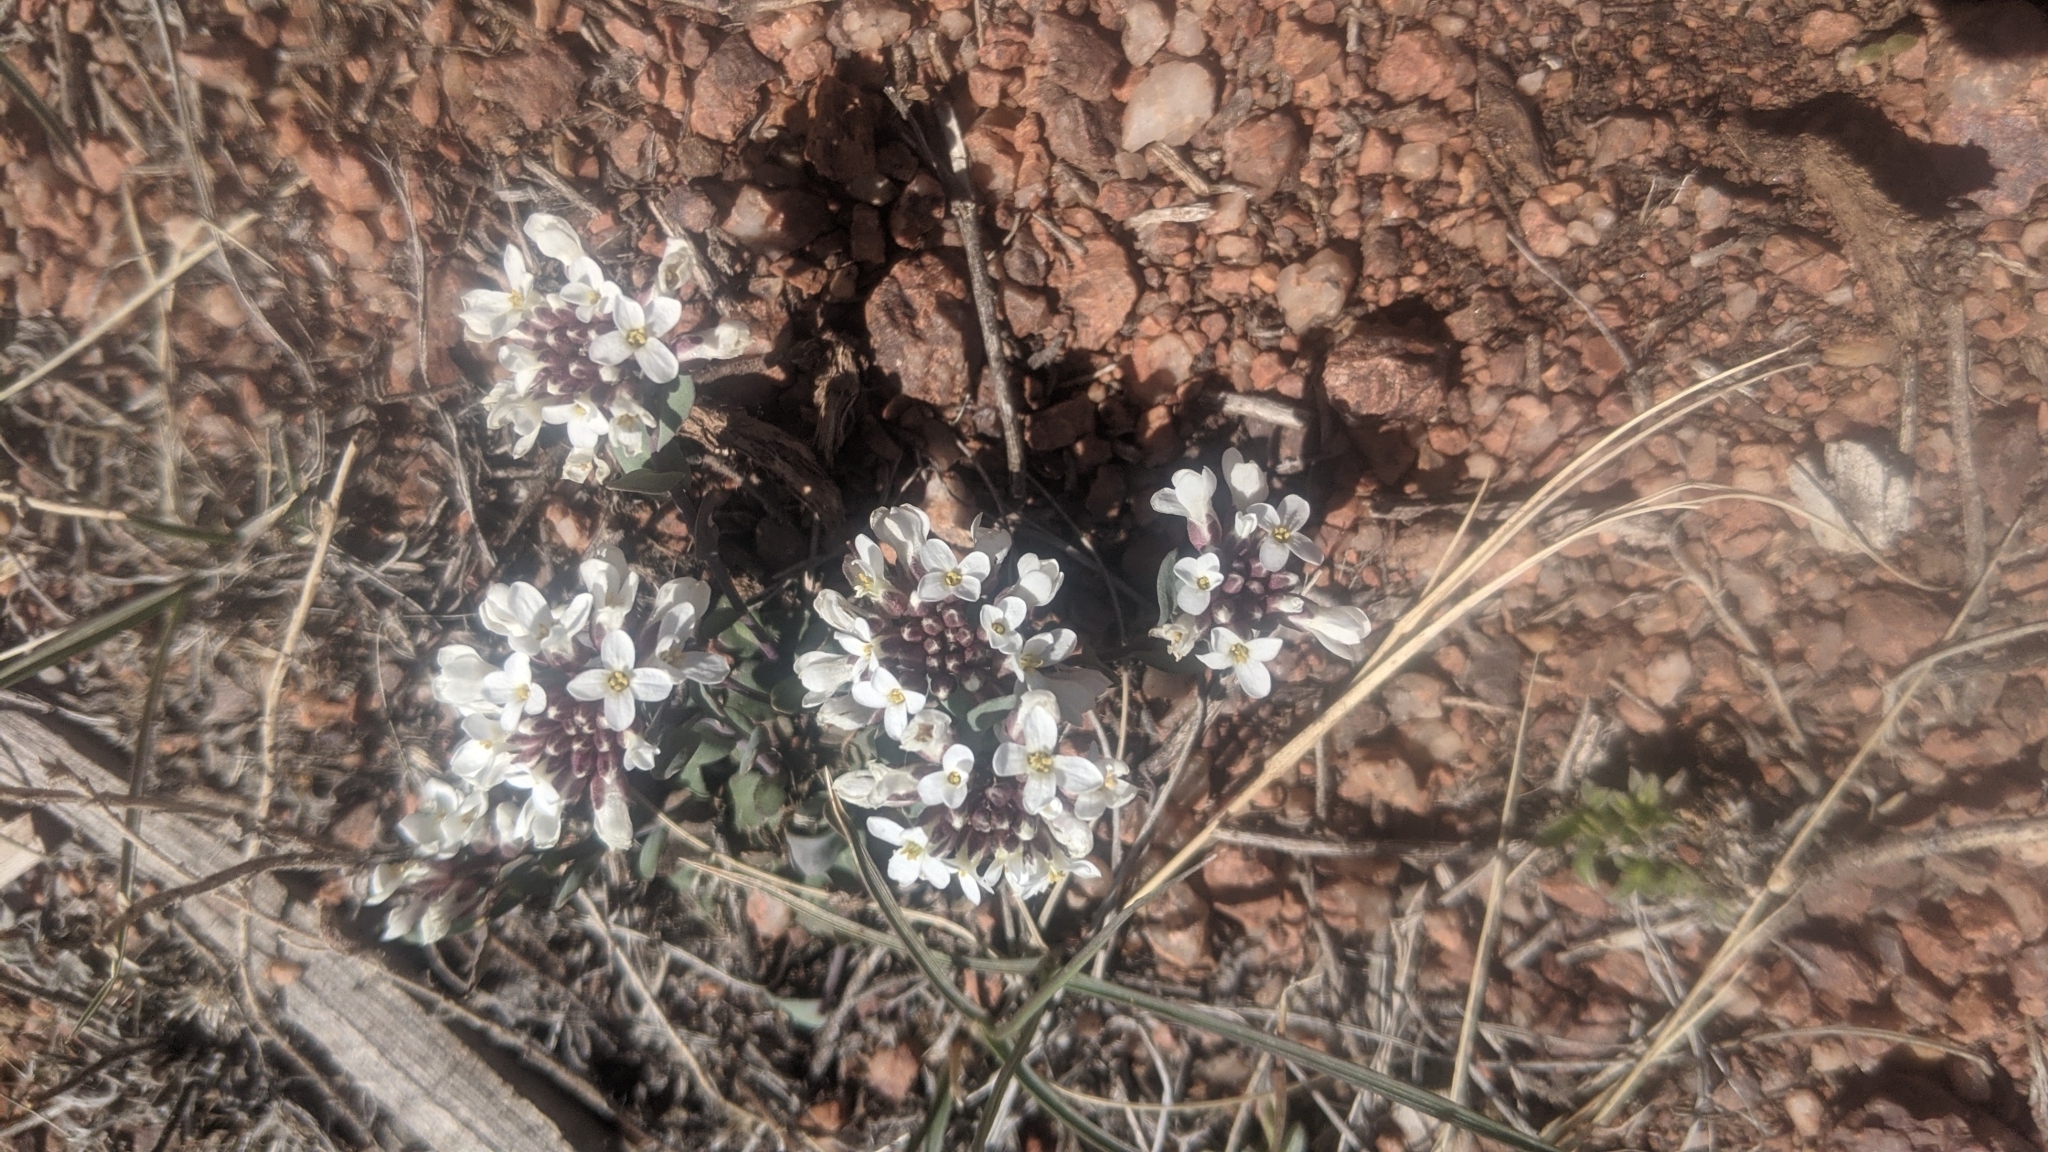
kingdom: Plantae
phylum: Tracheophyta
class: Magnoliopsida
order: Brassicales
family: Brassicaceae
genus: Noccaea
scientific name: Noccaea fendleri
